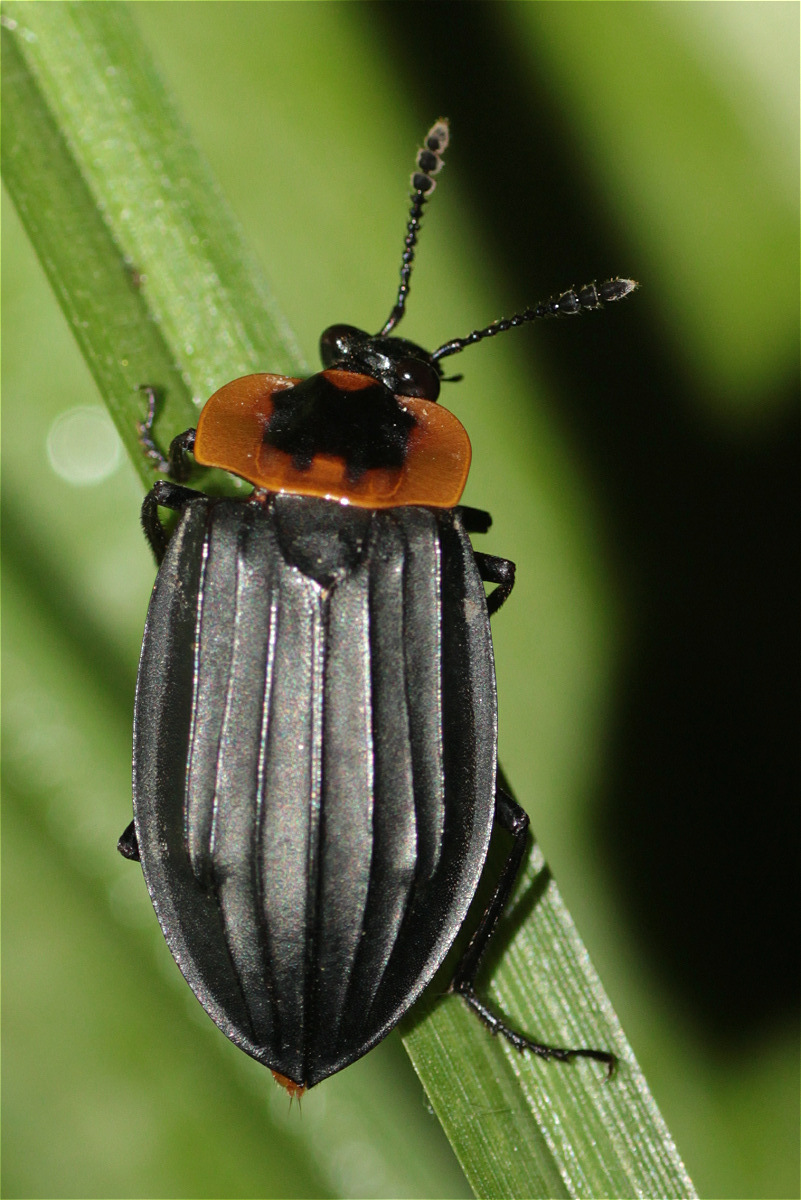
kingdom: Animalia
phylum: Arthropoda
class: Insecta
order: Coleoptera
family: Staphylinidae
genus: Oxelytrum
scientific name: Oxelytrum discicolle
